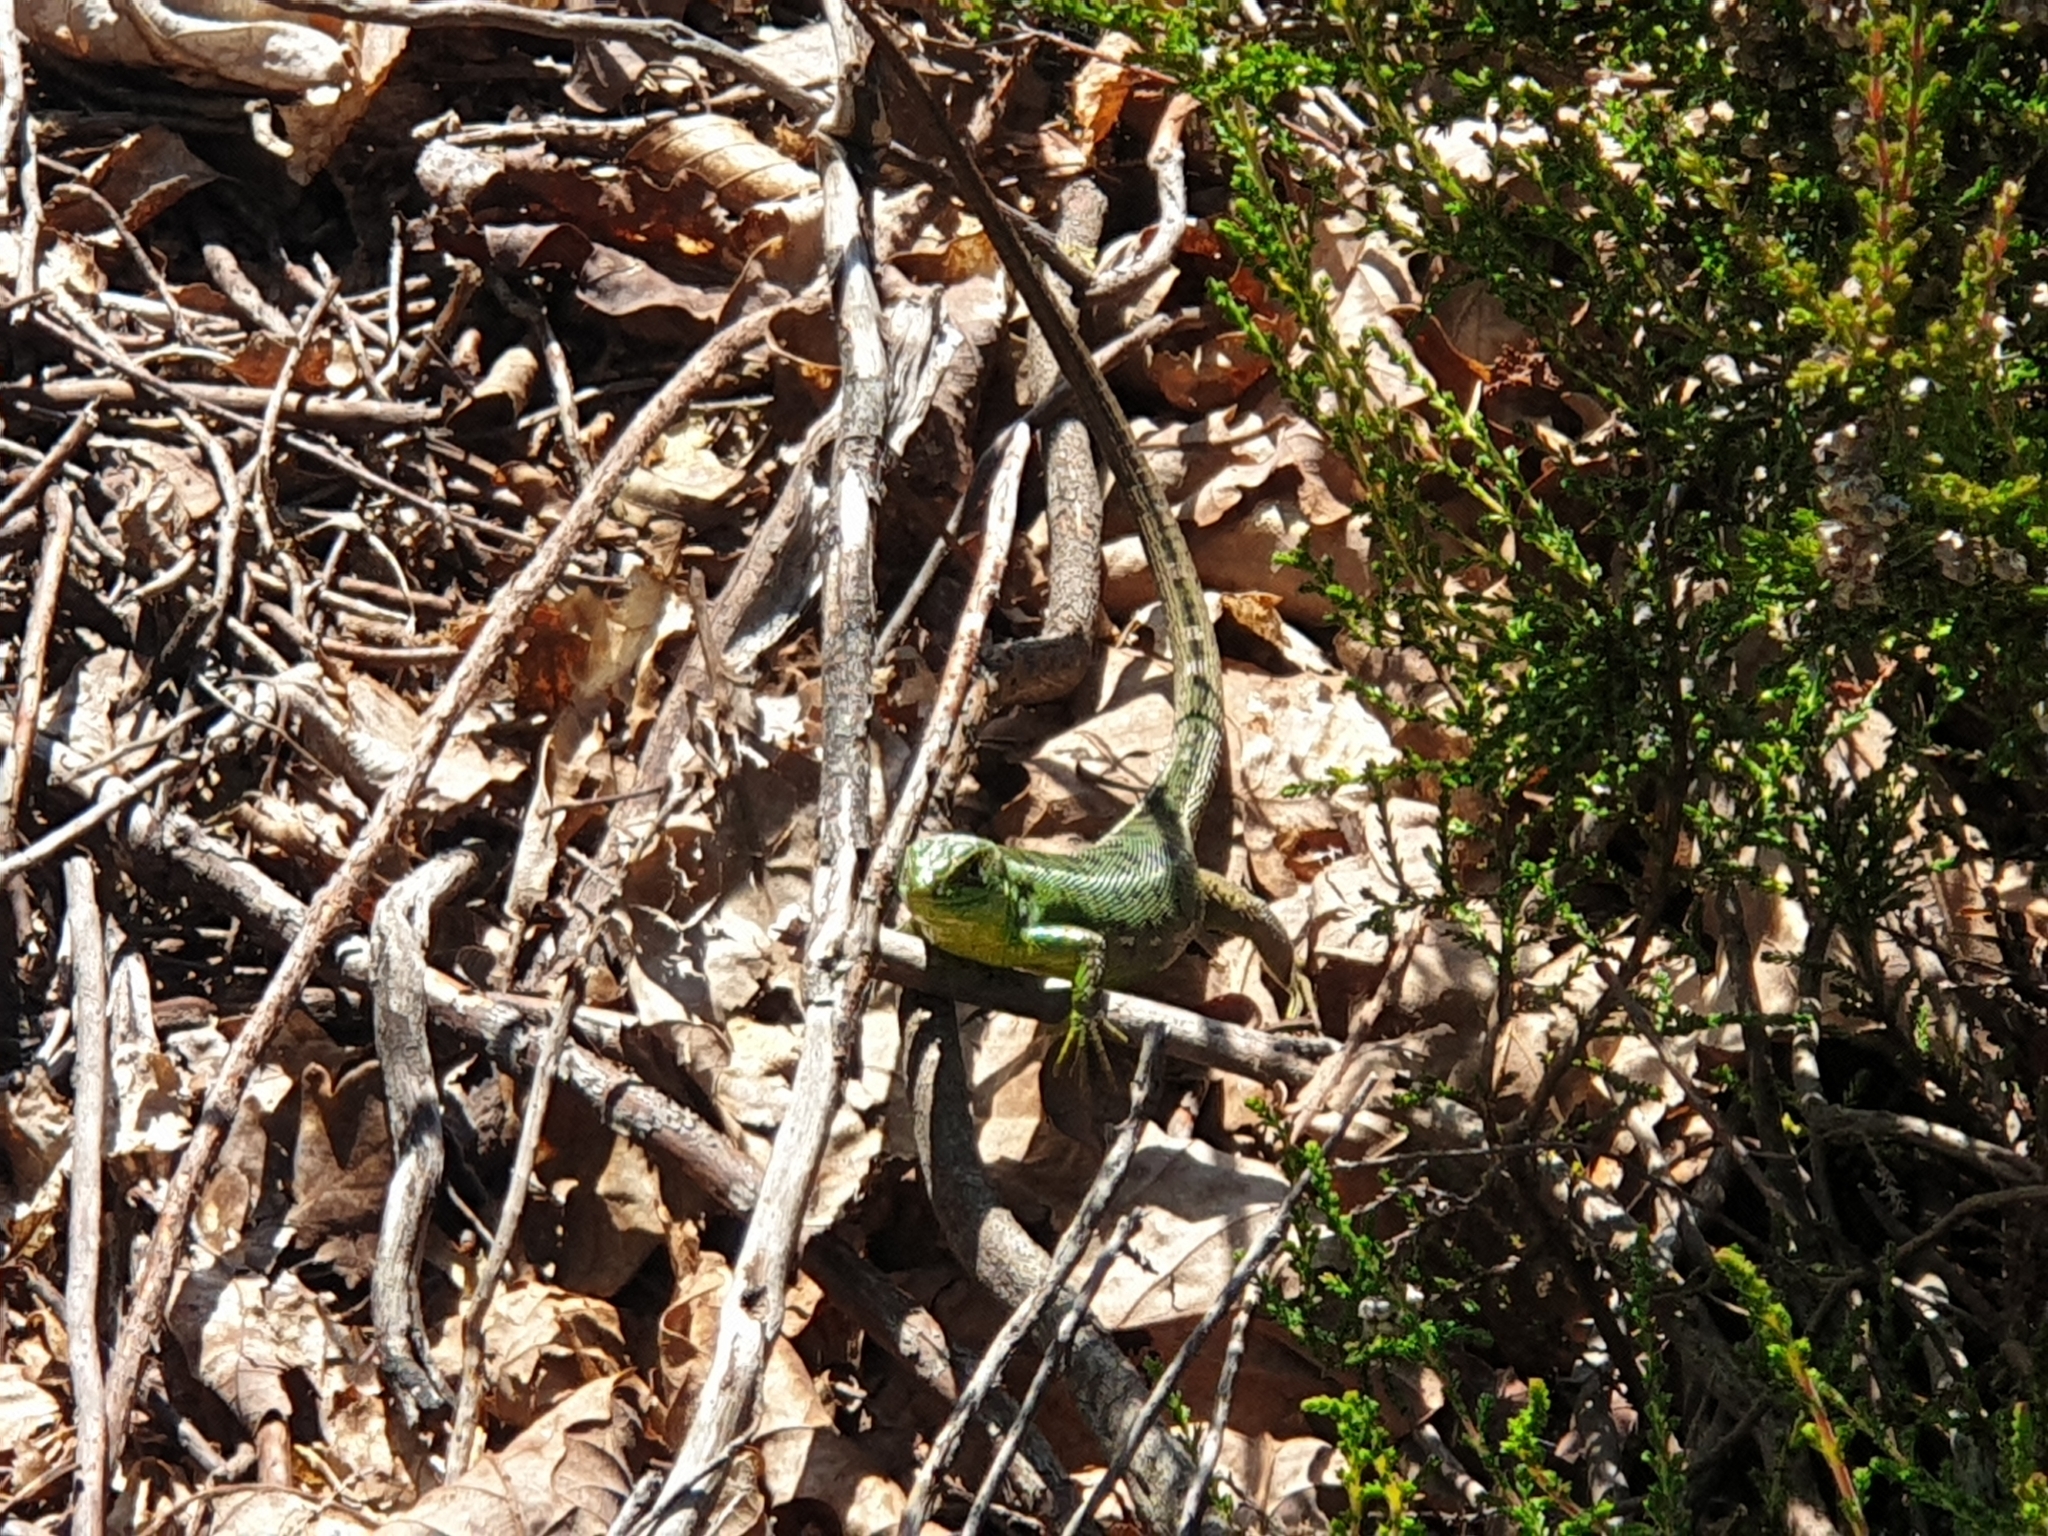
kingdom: Animalia
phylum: Chordata
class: Squamata
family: Lacertidae
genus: Lacerta
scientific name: Lacerta bilineata
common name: Western green lizard
